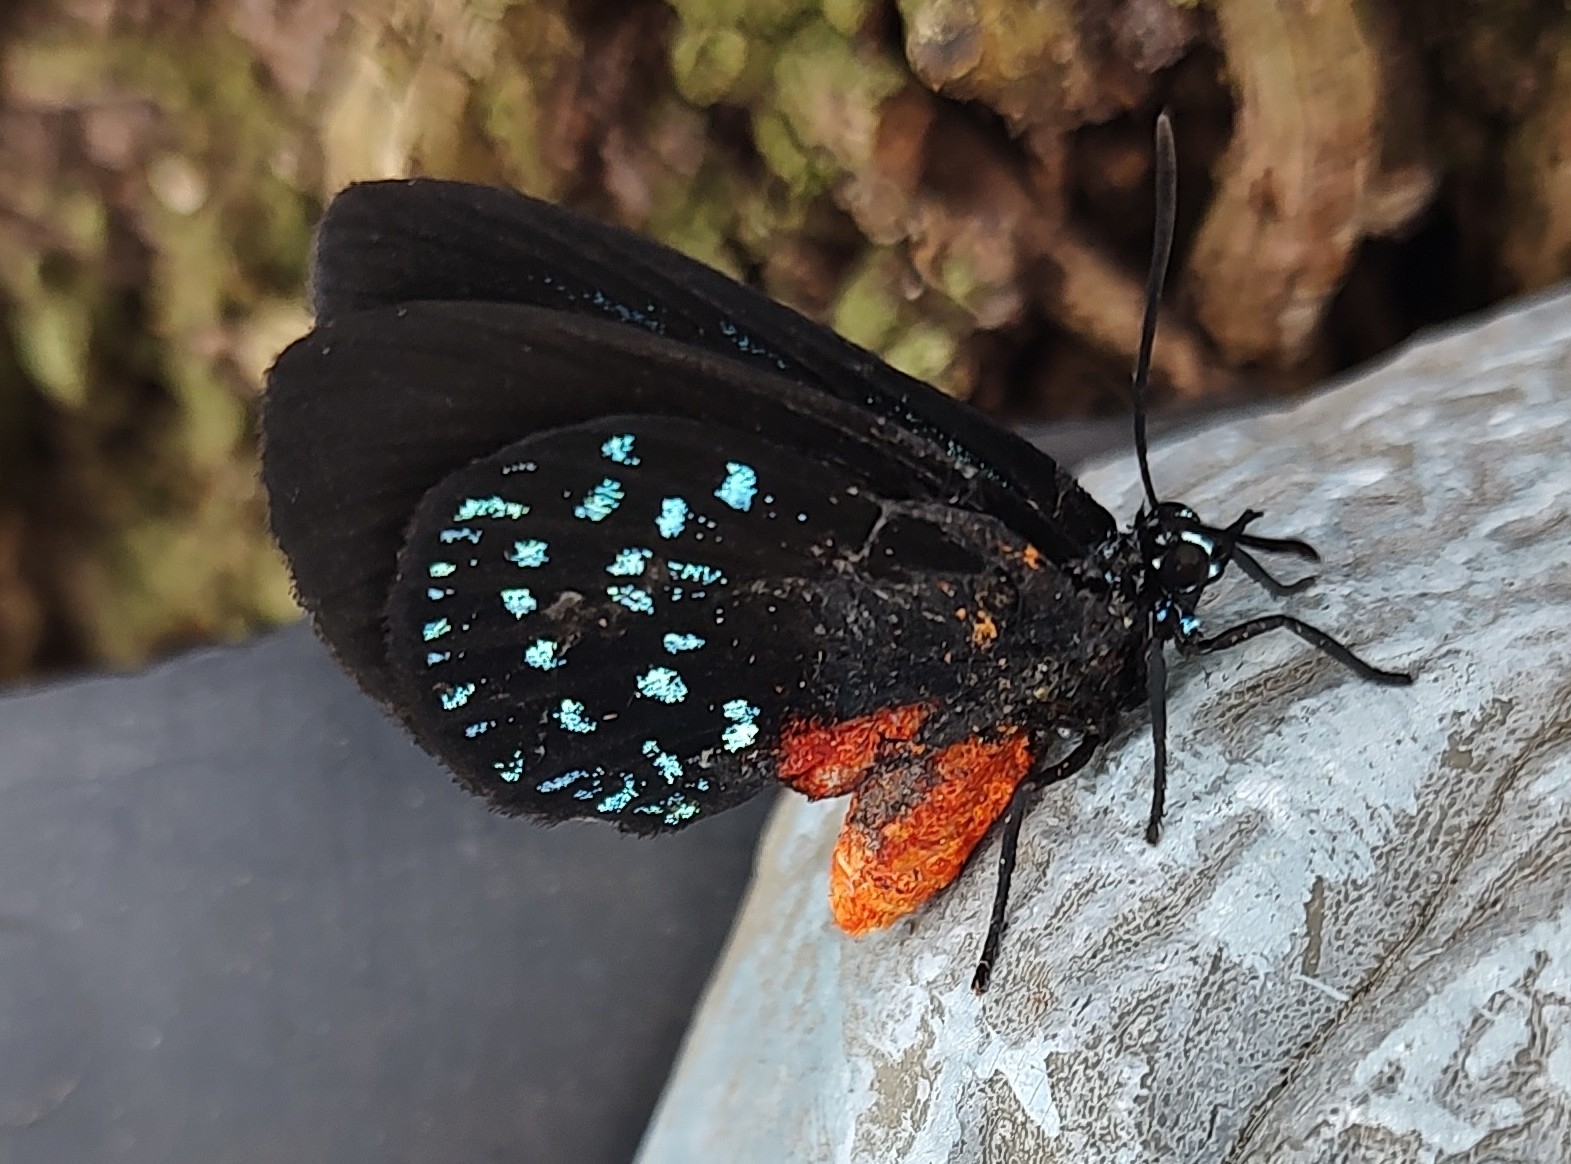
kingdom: Animalia
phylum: Arthropoda
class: Insecta
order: Lepidoptera
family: Lycaenidae
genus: Eumaeus
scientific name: Eumaeus atala
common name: Atala
